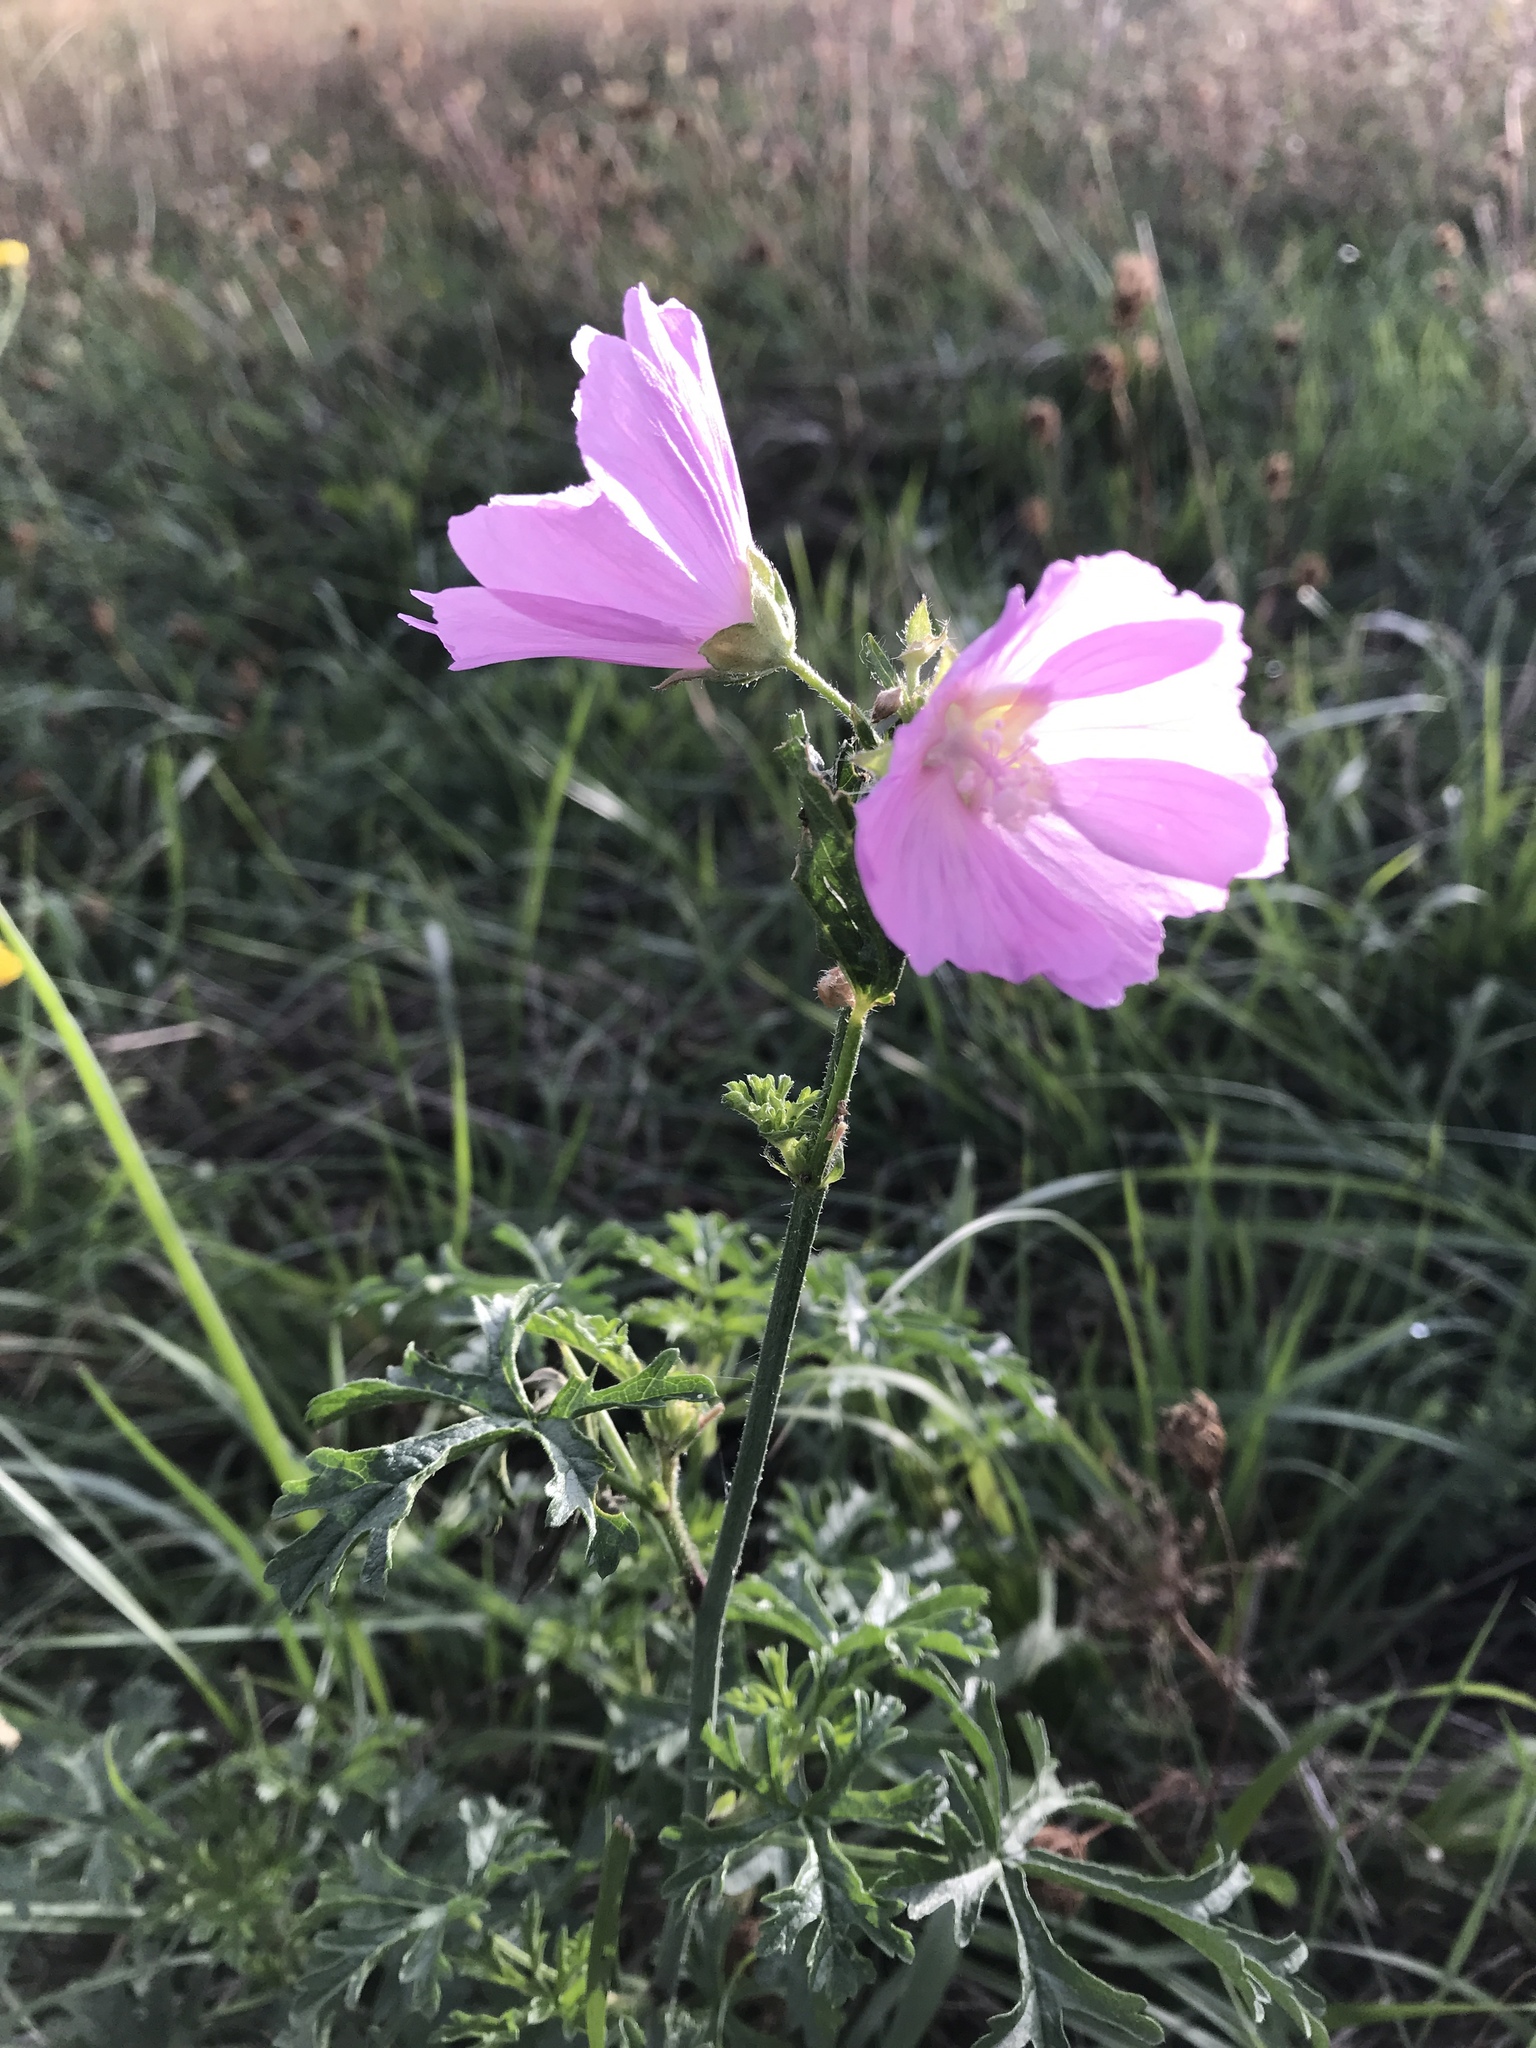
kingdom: Plantae
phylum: Tracheophyta
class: Magnoliopsida
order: Malvales
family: Malvaceae
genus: Malva
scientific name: Malva moschata
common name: Musk mallow
